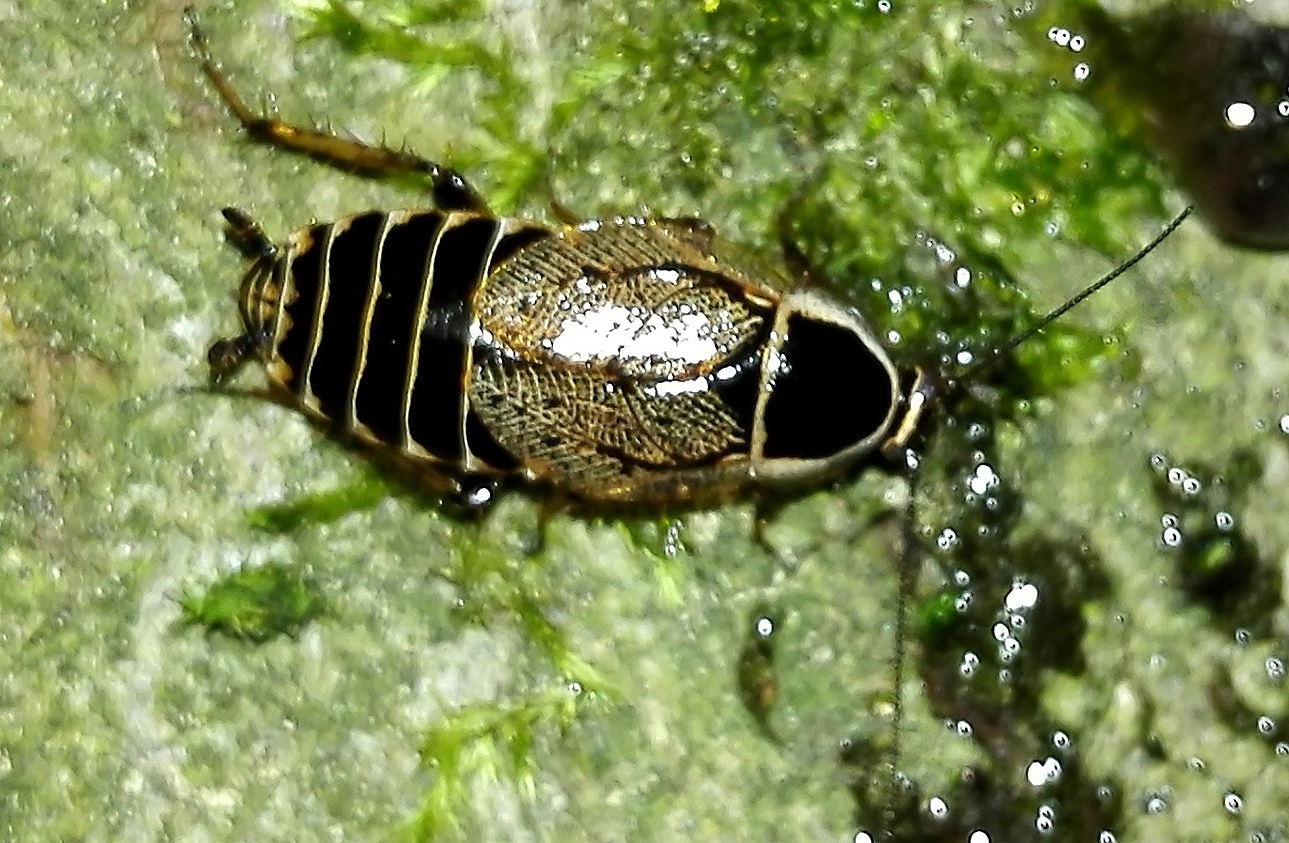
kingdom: Animalia
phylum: Arthropoda
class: Insecta
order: Blattodea
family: Ectobiidae
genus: Ectobius
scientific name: Ectobius sylvestris
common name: Forest cockroach
